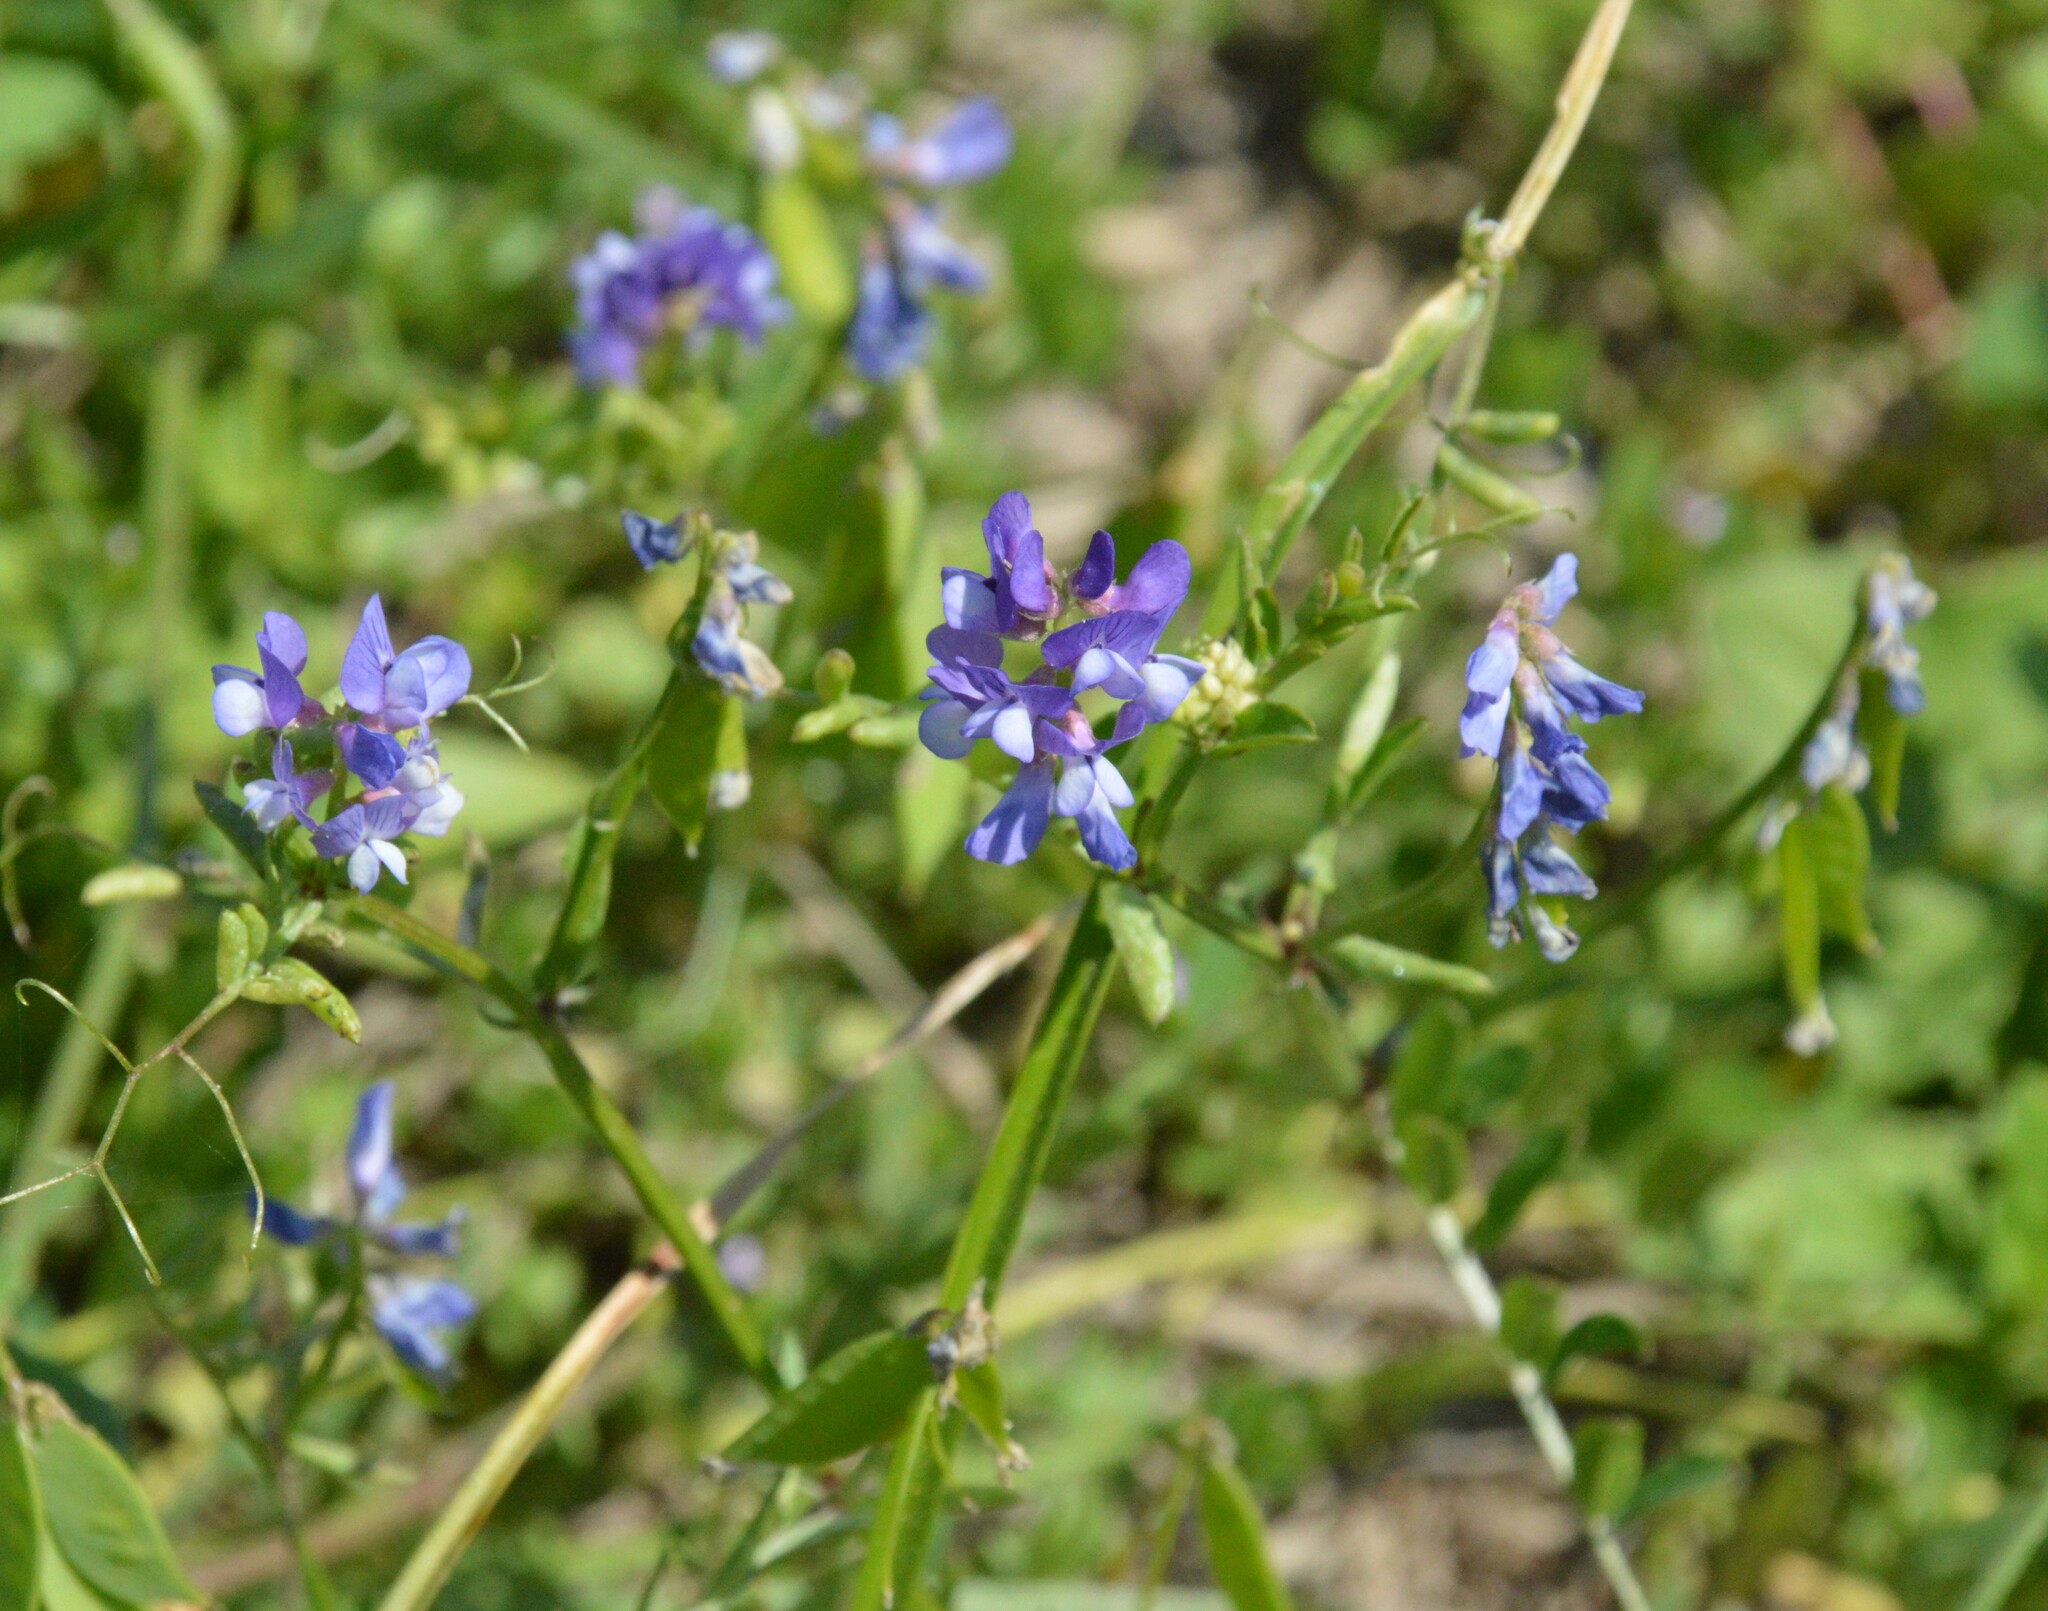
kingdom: Plantae
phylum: Tracheophyta
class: Magnoliopsida
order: Fabales
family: Fabaceae
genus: Vicia
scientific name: Vicia ludoviciana
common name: Louisiana vetch
